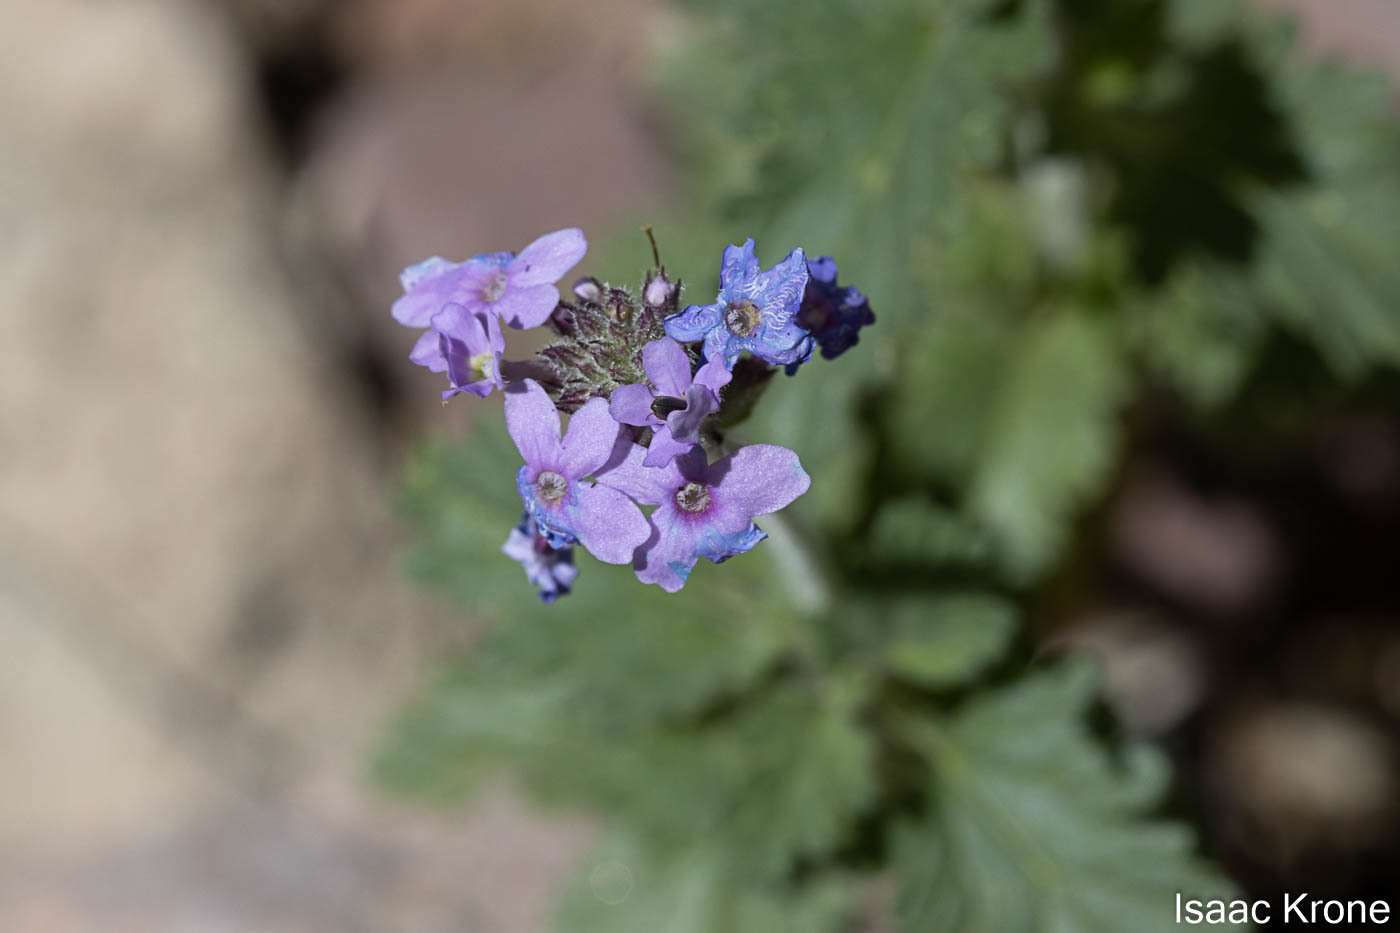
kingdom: Plantae
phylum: Tracheophyta
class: Magnoliopsida
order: Lamiales
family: Verbenaceae
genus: Verbena
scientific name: Verbena gooddingii
